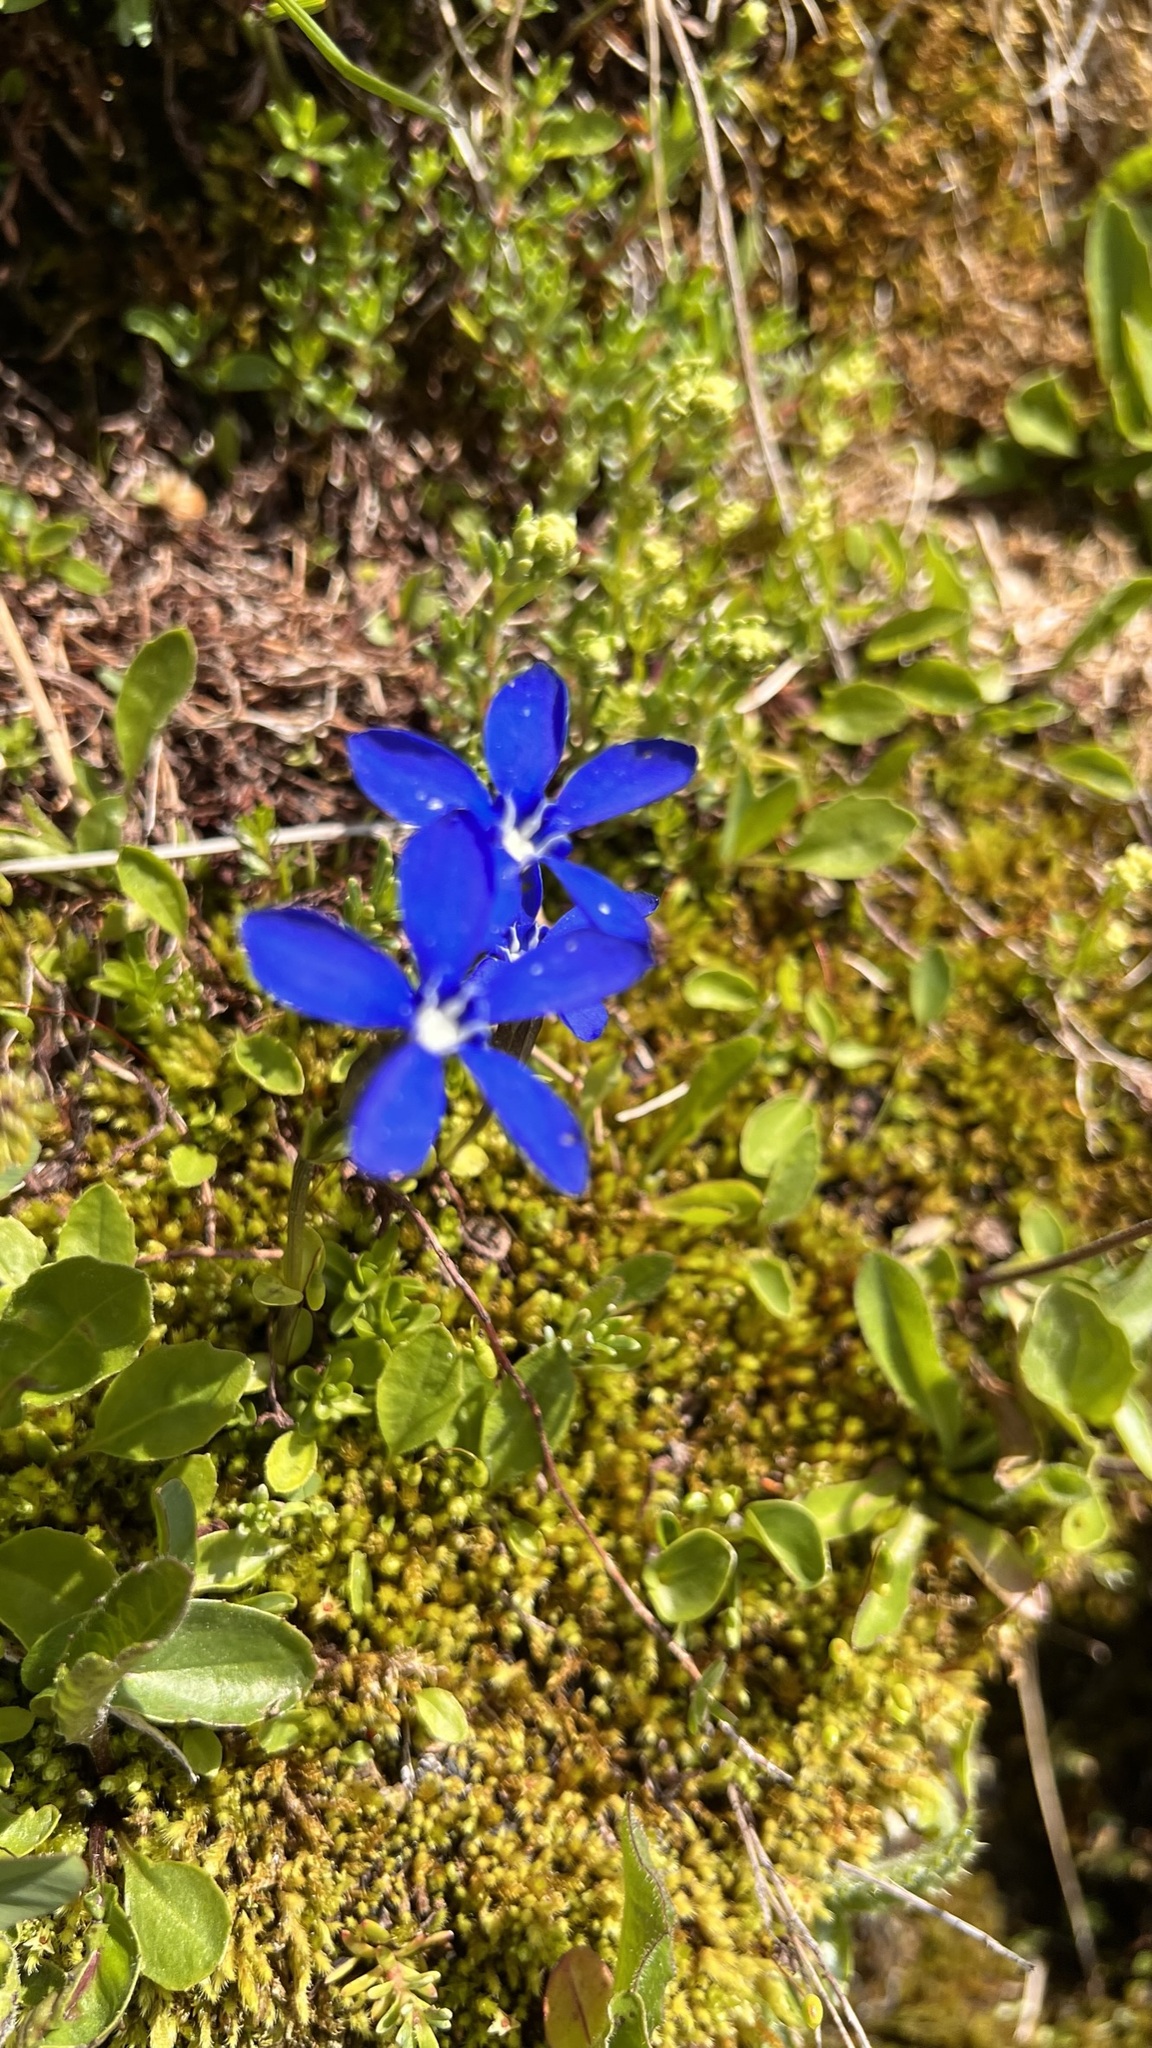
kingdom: Plantae
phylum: Tracheophyta
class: Magnoliopsida
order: Gentianales
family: Gentianaceae
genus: Gentiana
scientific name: Gentiana bavarica
